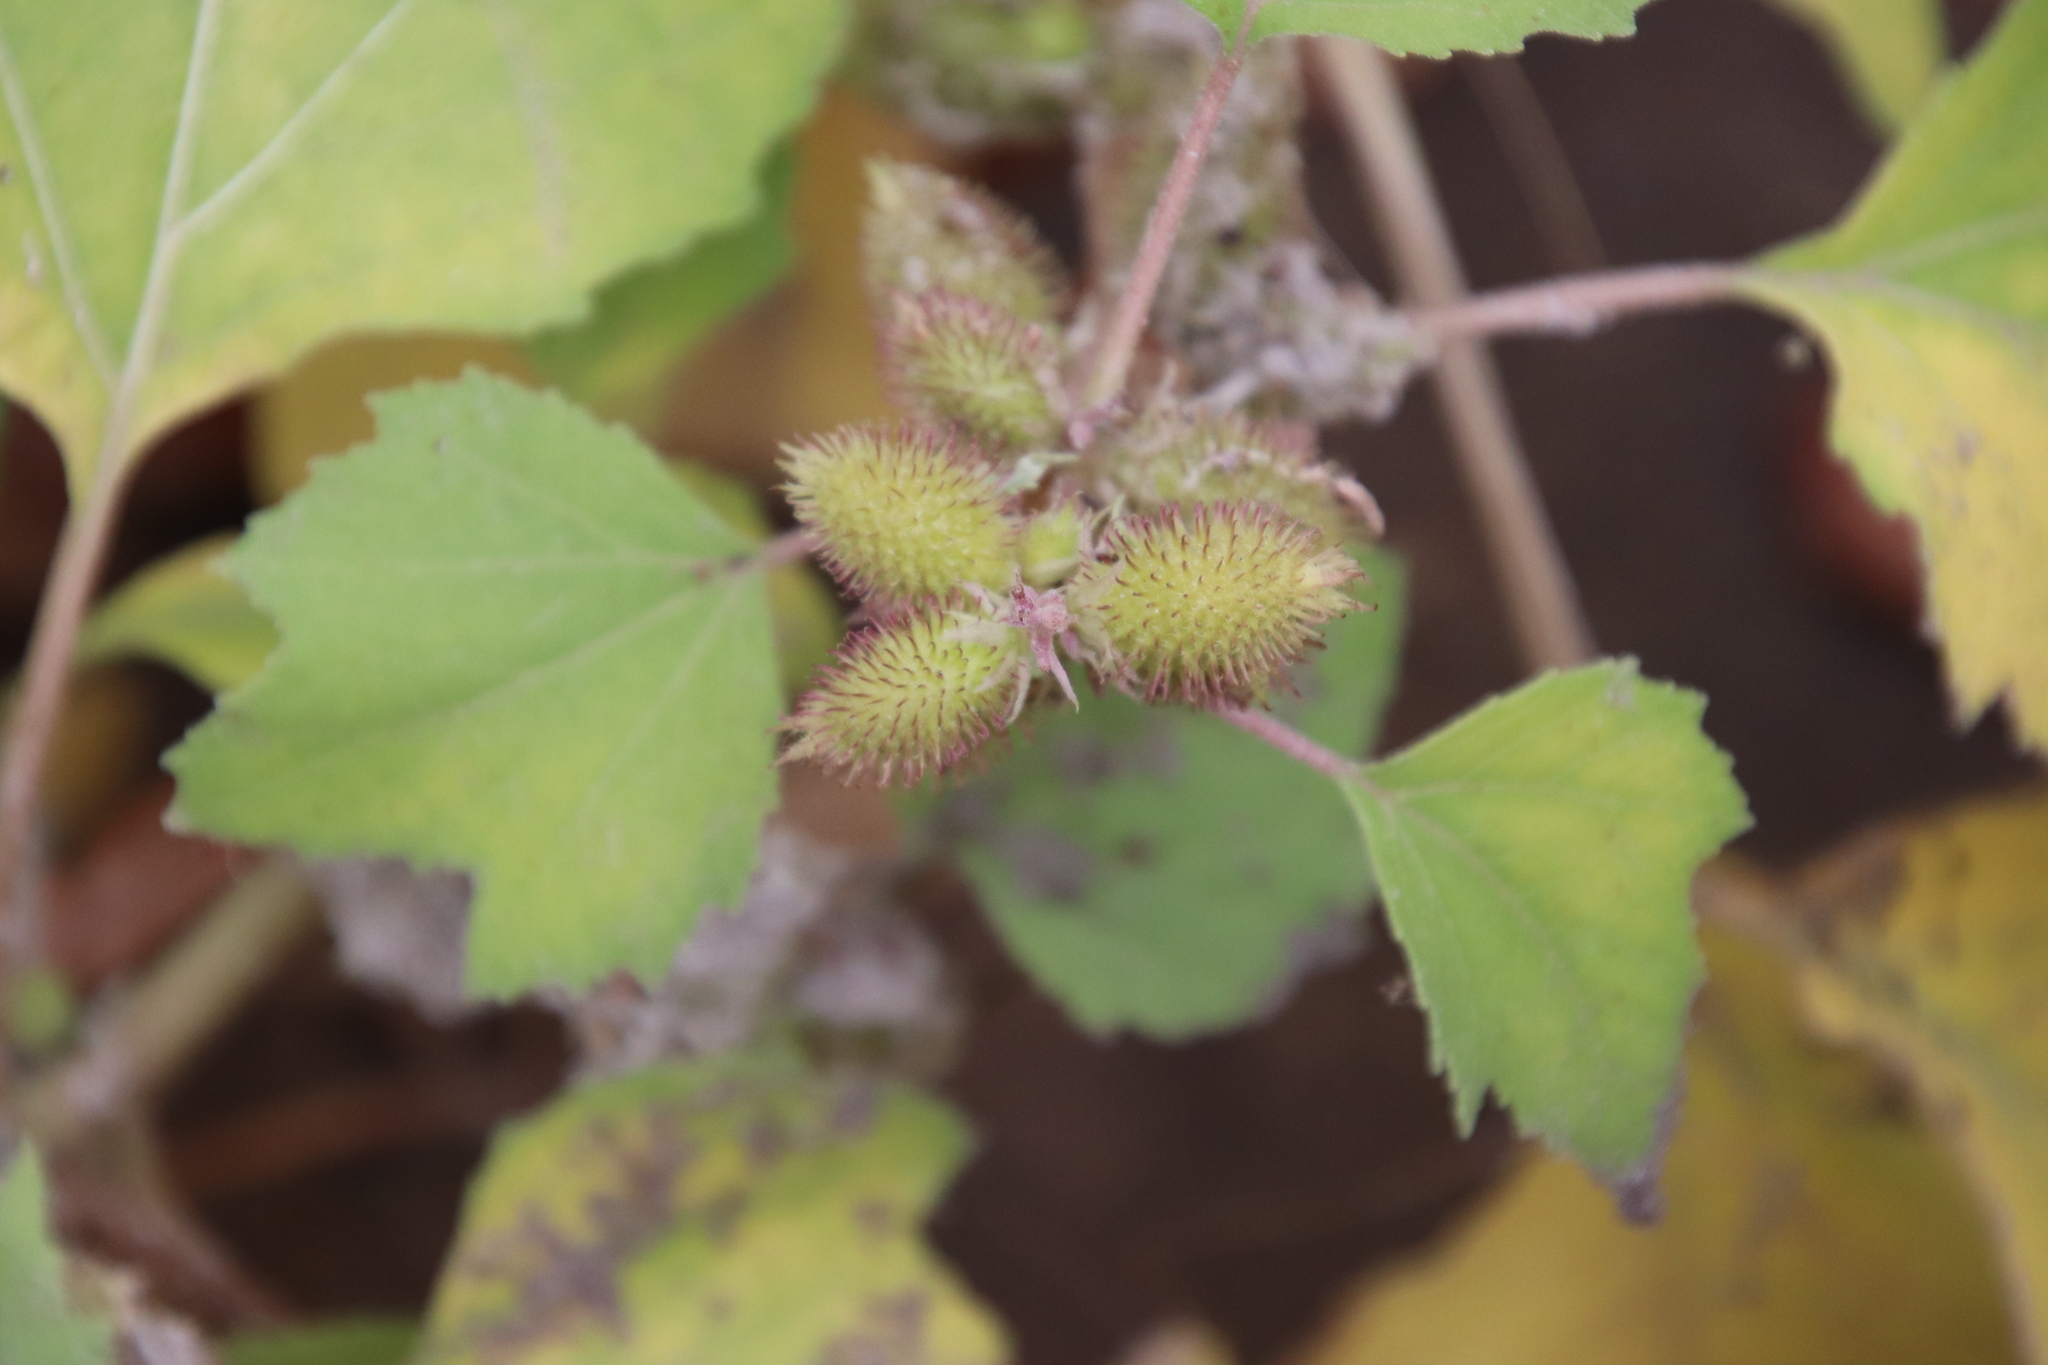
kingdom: Plantae
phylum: Tracheophyta
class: Magnoliopsida
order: Asterales
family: Asteraceae
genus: Xanthium
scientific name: Xanthium strumarium
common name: Rough cocklebur
